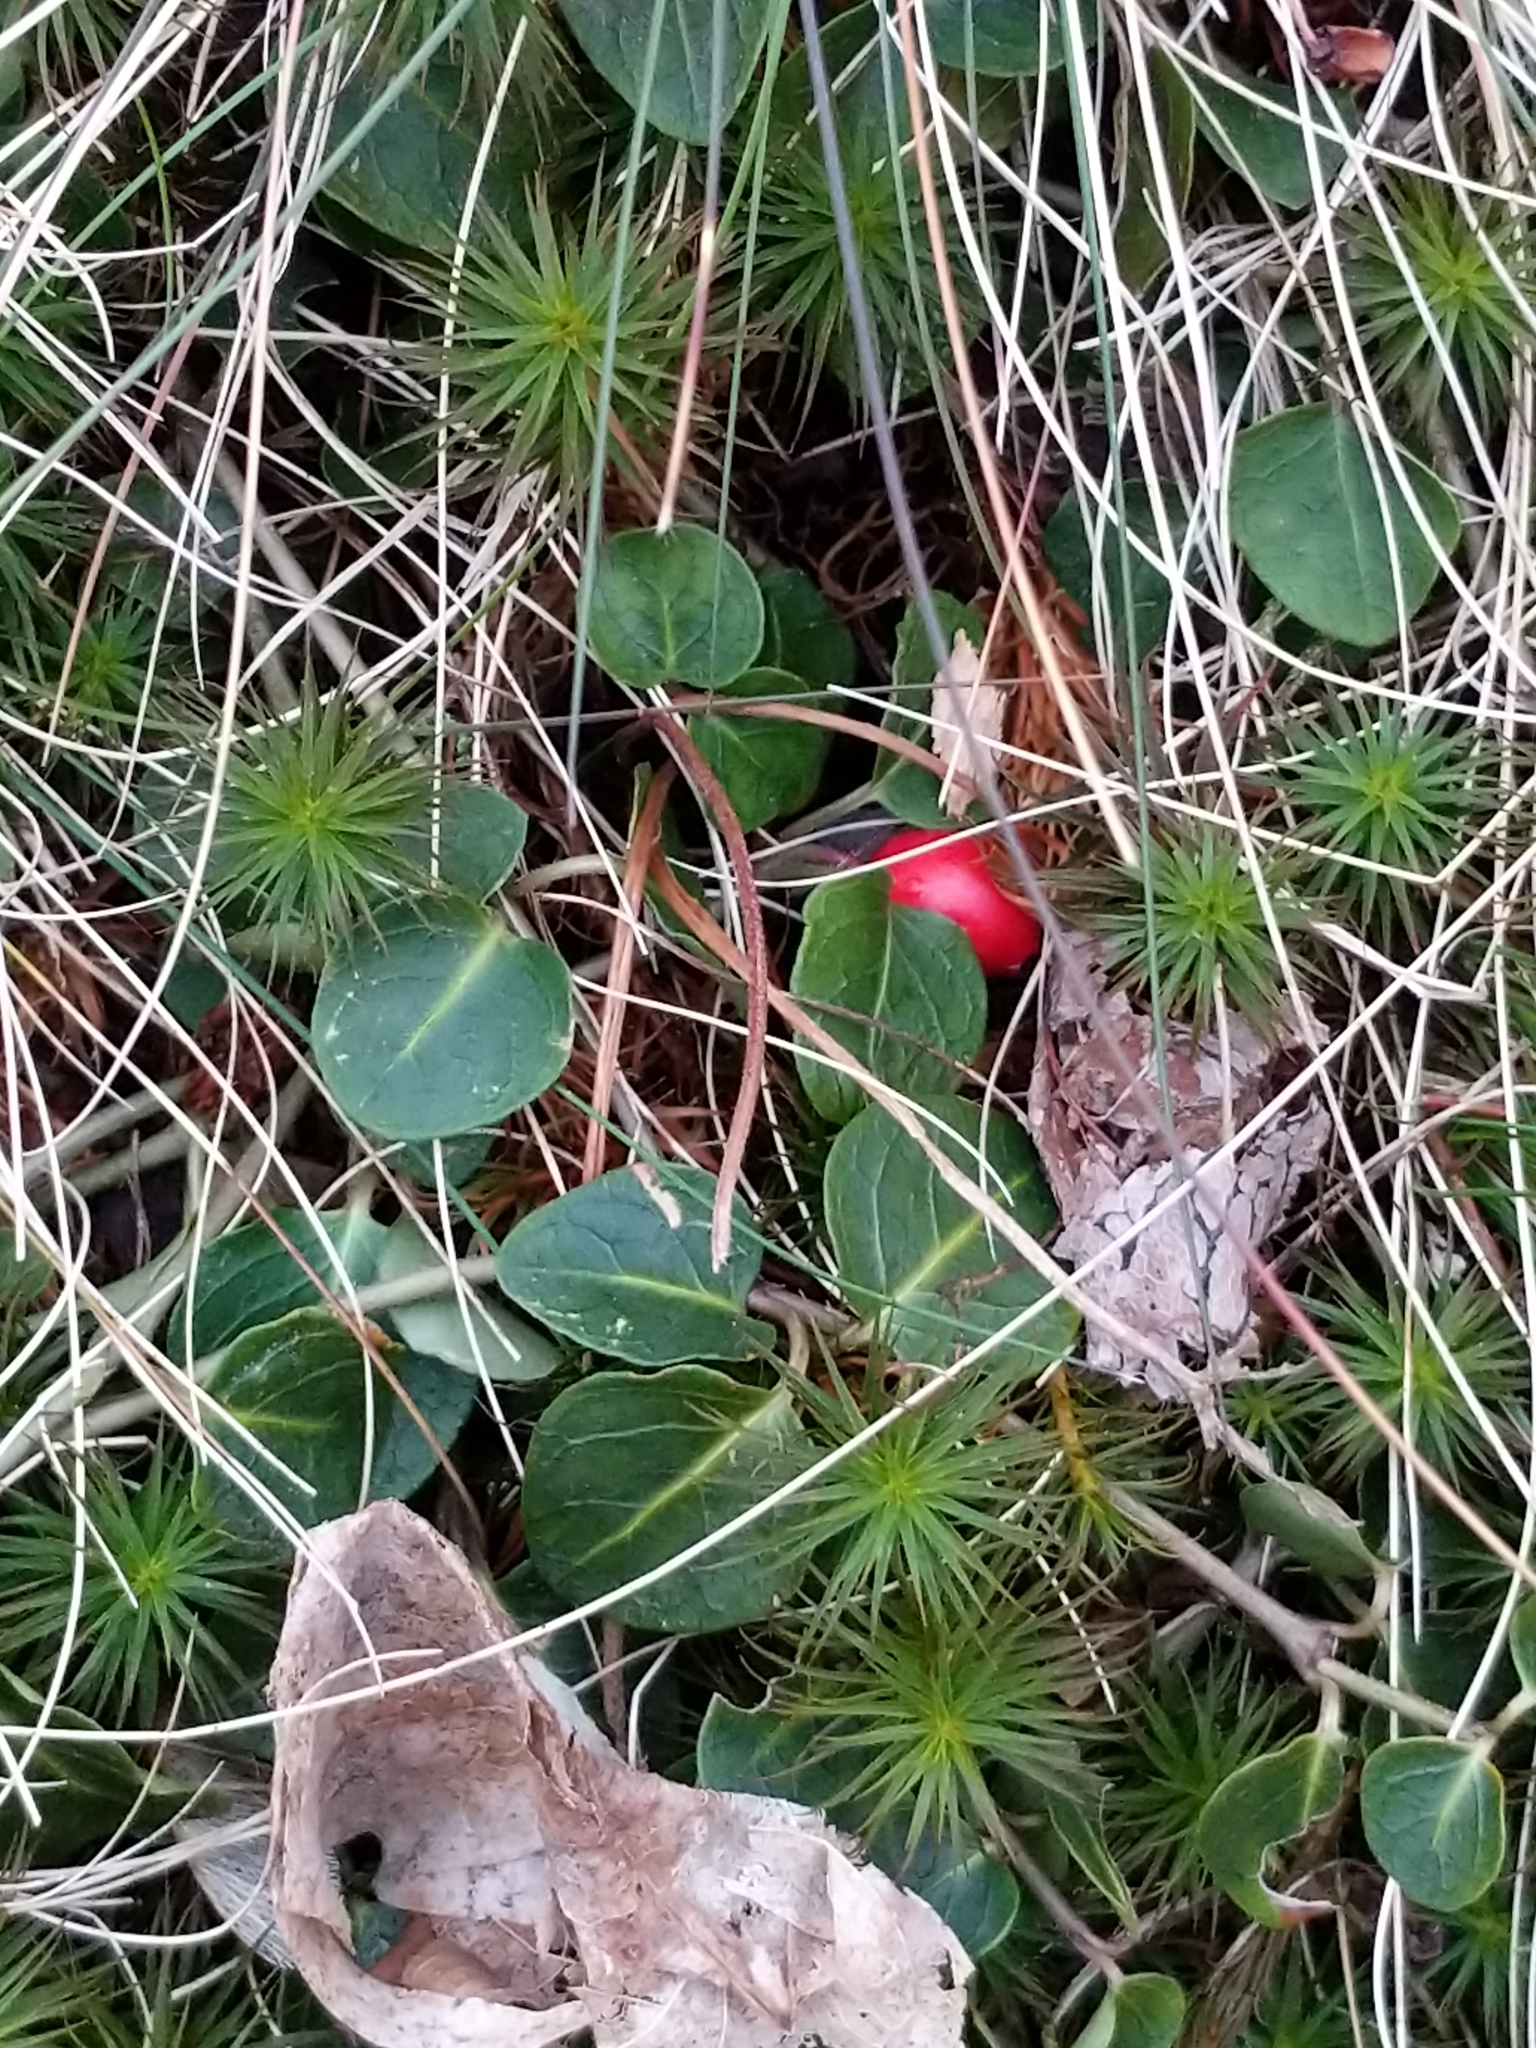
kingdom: Plantae
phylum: Tracheophyta
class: Magnoliopsida
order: Gentianales
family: Rubiaceae
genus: Mitchella
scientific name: Mitchella repens
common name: Partridge-berry
